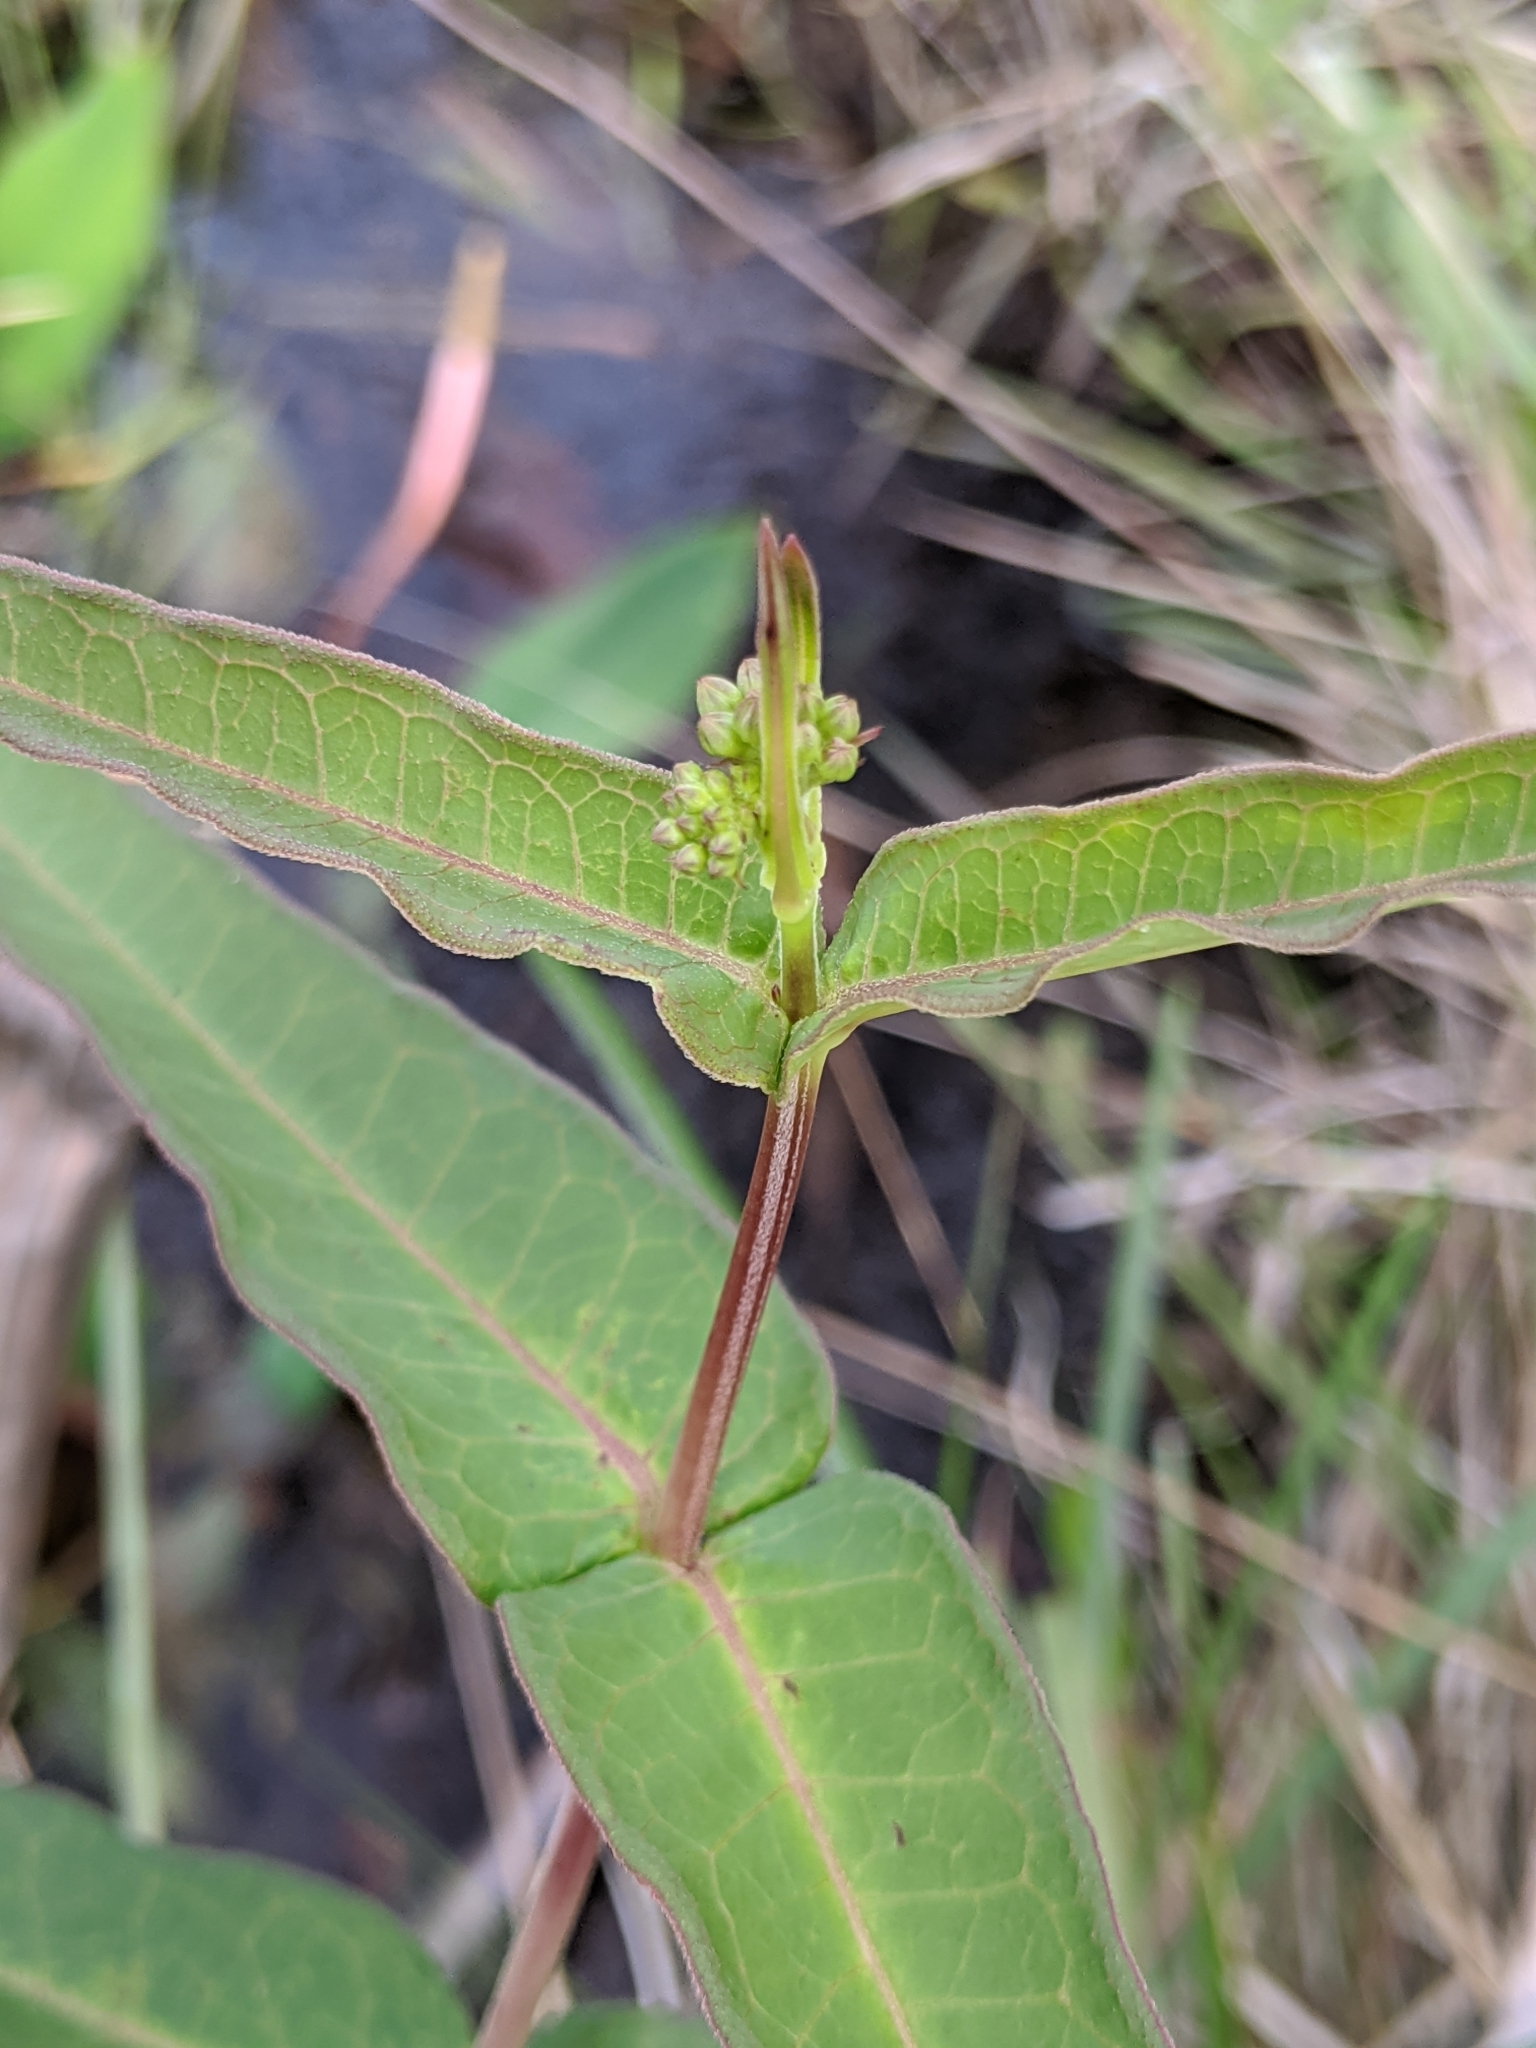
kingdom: Plantae
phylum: Tracheophyta
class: Magnoliopsida
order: Gentianales
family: Apocynaceae
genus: Asclepias
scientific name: Asclepias rubra
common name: Red milkweed
